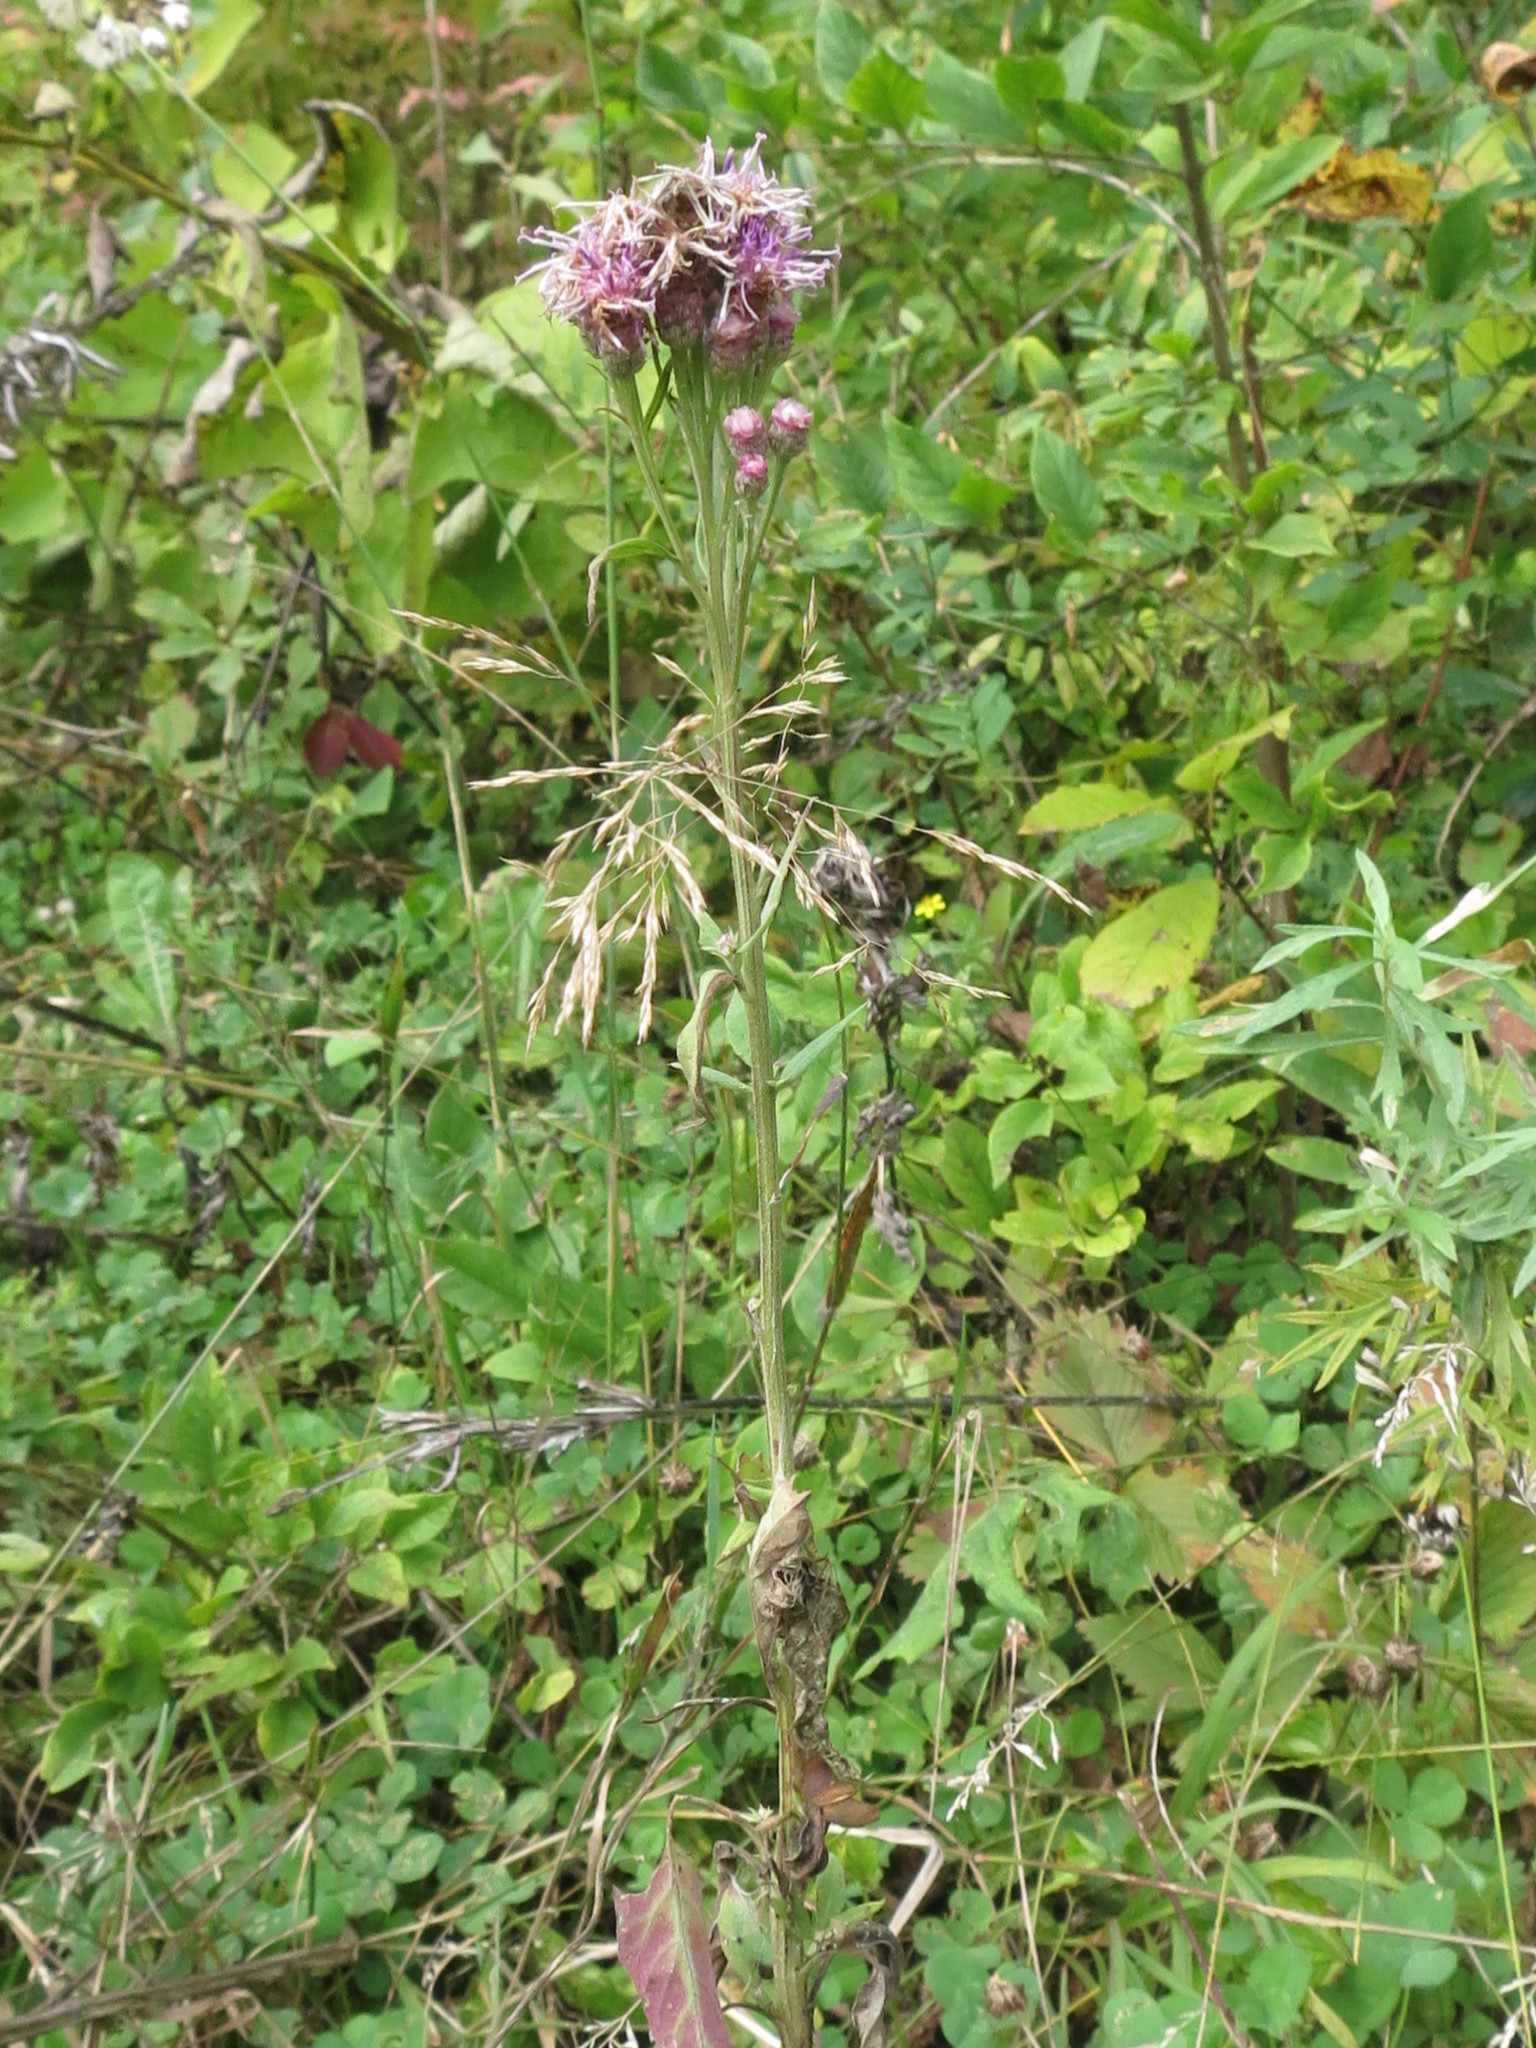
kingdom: Plantae
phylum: Tracheophyta
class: Magnoliopsida
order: Asterales
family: Asteraceae
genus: Saussurea
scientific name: Saussurea pulchella
